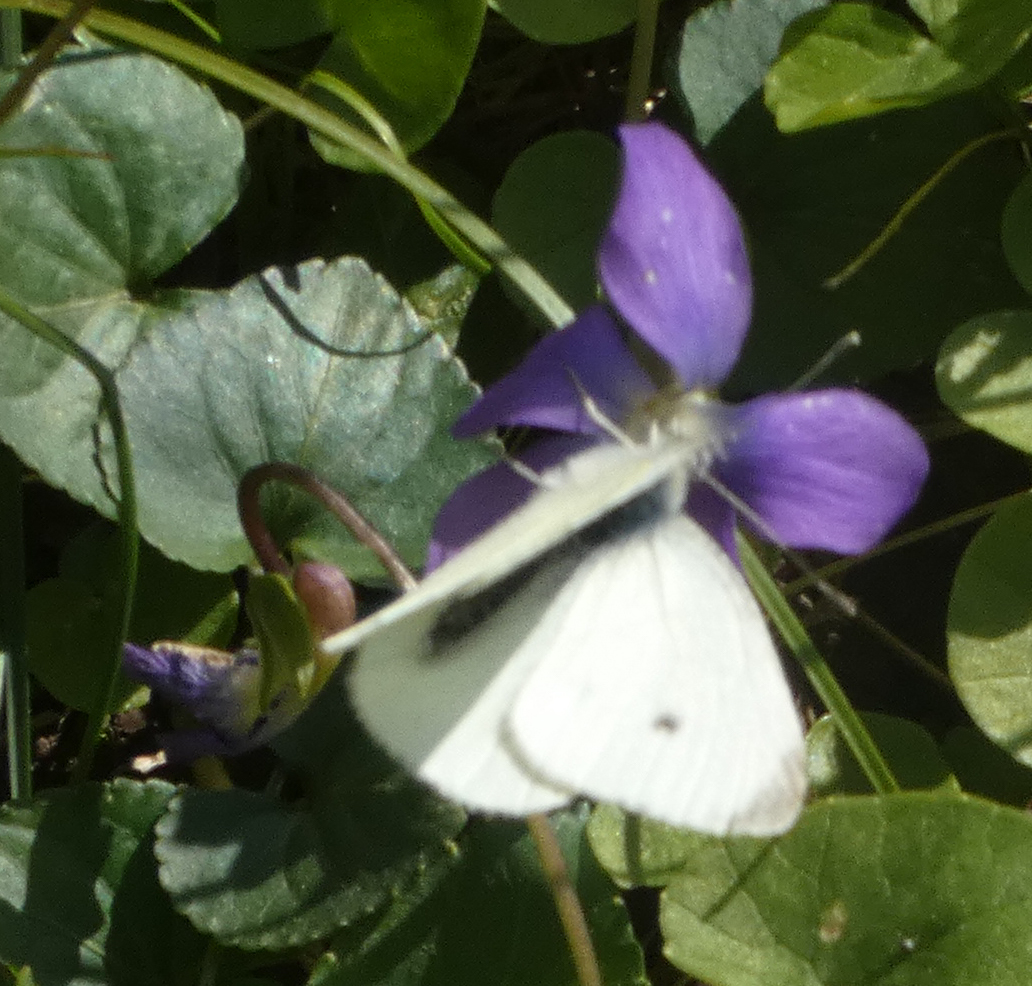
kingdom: Animalia
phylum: Arthropoda
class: Insecta
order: Lepidoptera
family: Pieridae
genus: Pieris
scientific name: Pieris rapae
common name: Small white
